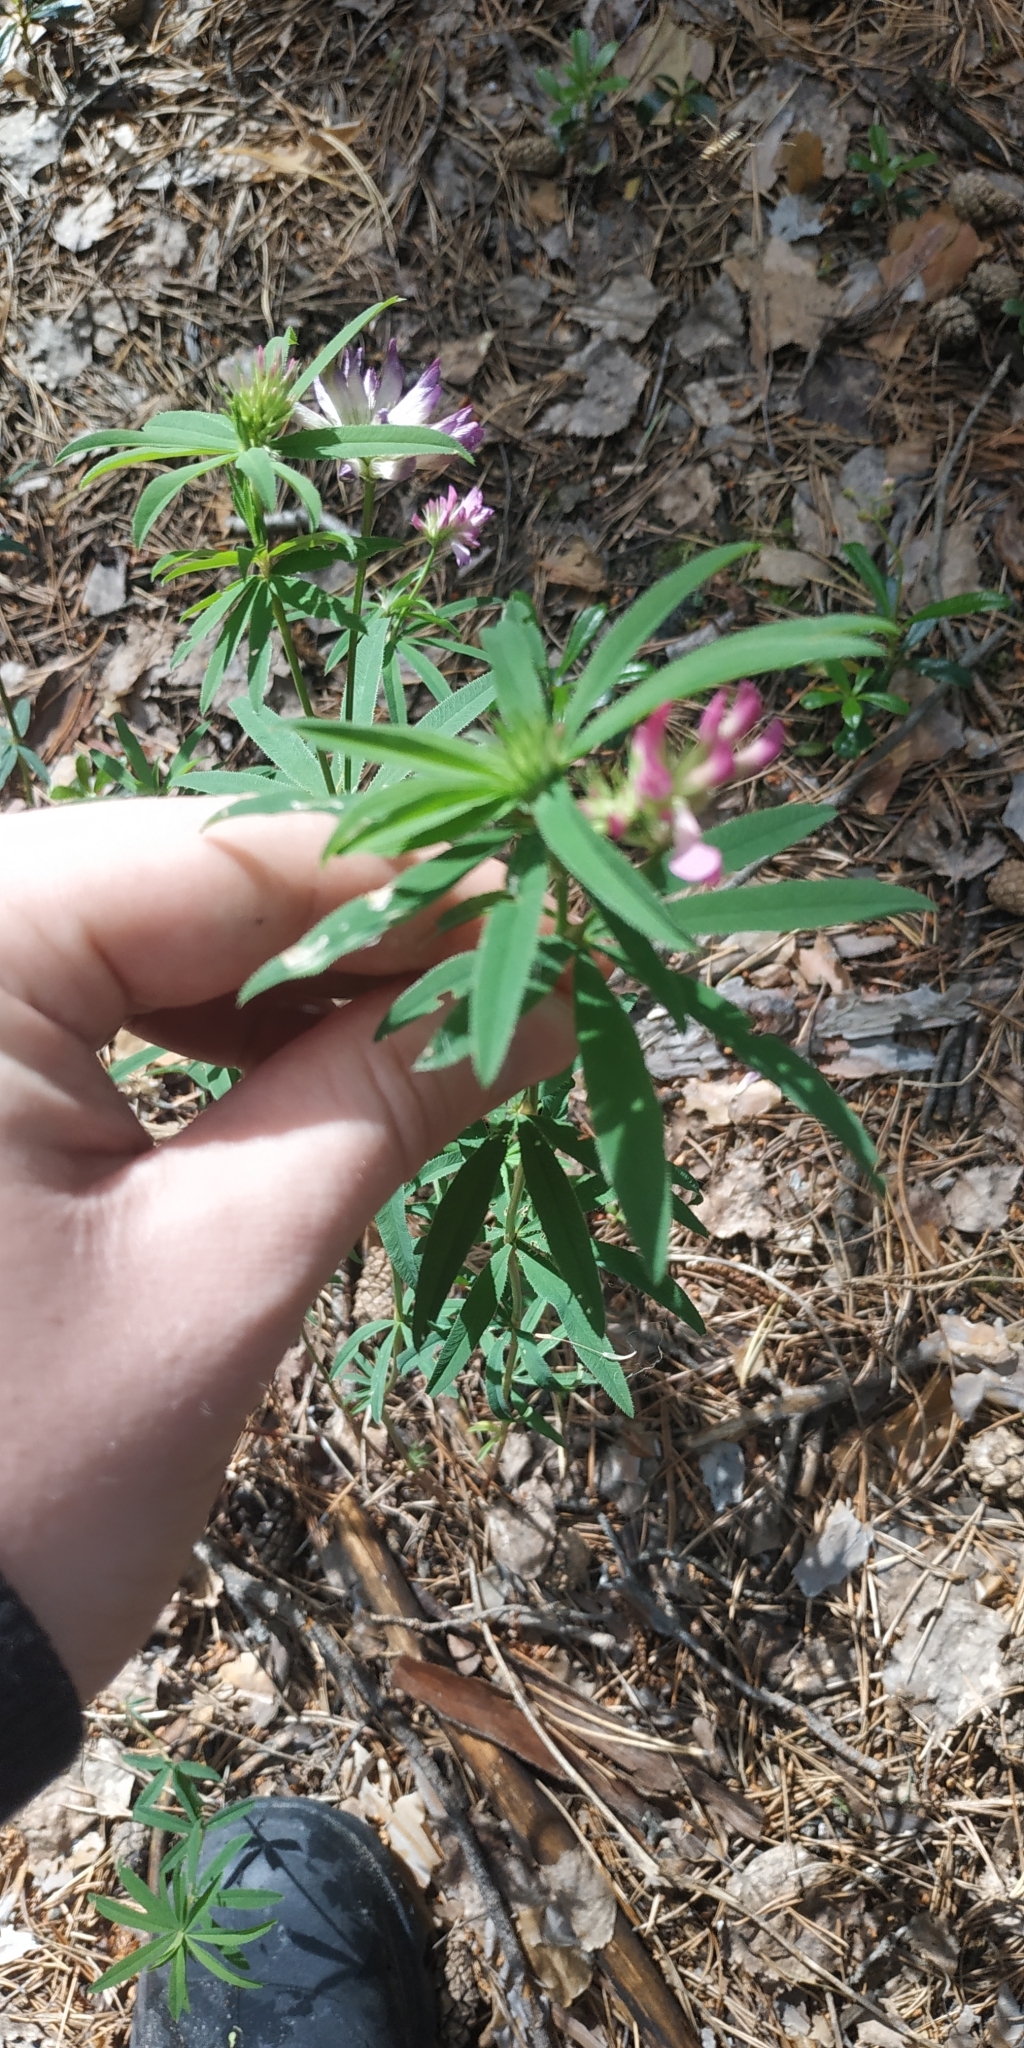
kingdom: Plantae
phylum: Tracheophyta
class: Magnoliopsida
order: Fabales
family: Fabaceae
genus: Trifolium
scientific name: Trifolium lupinaster
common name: Lupine clover
